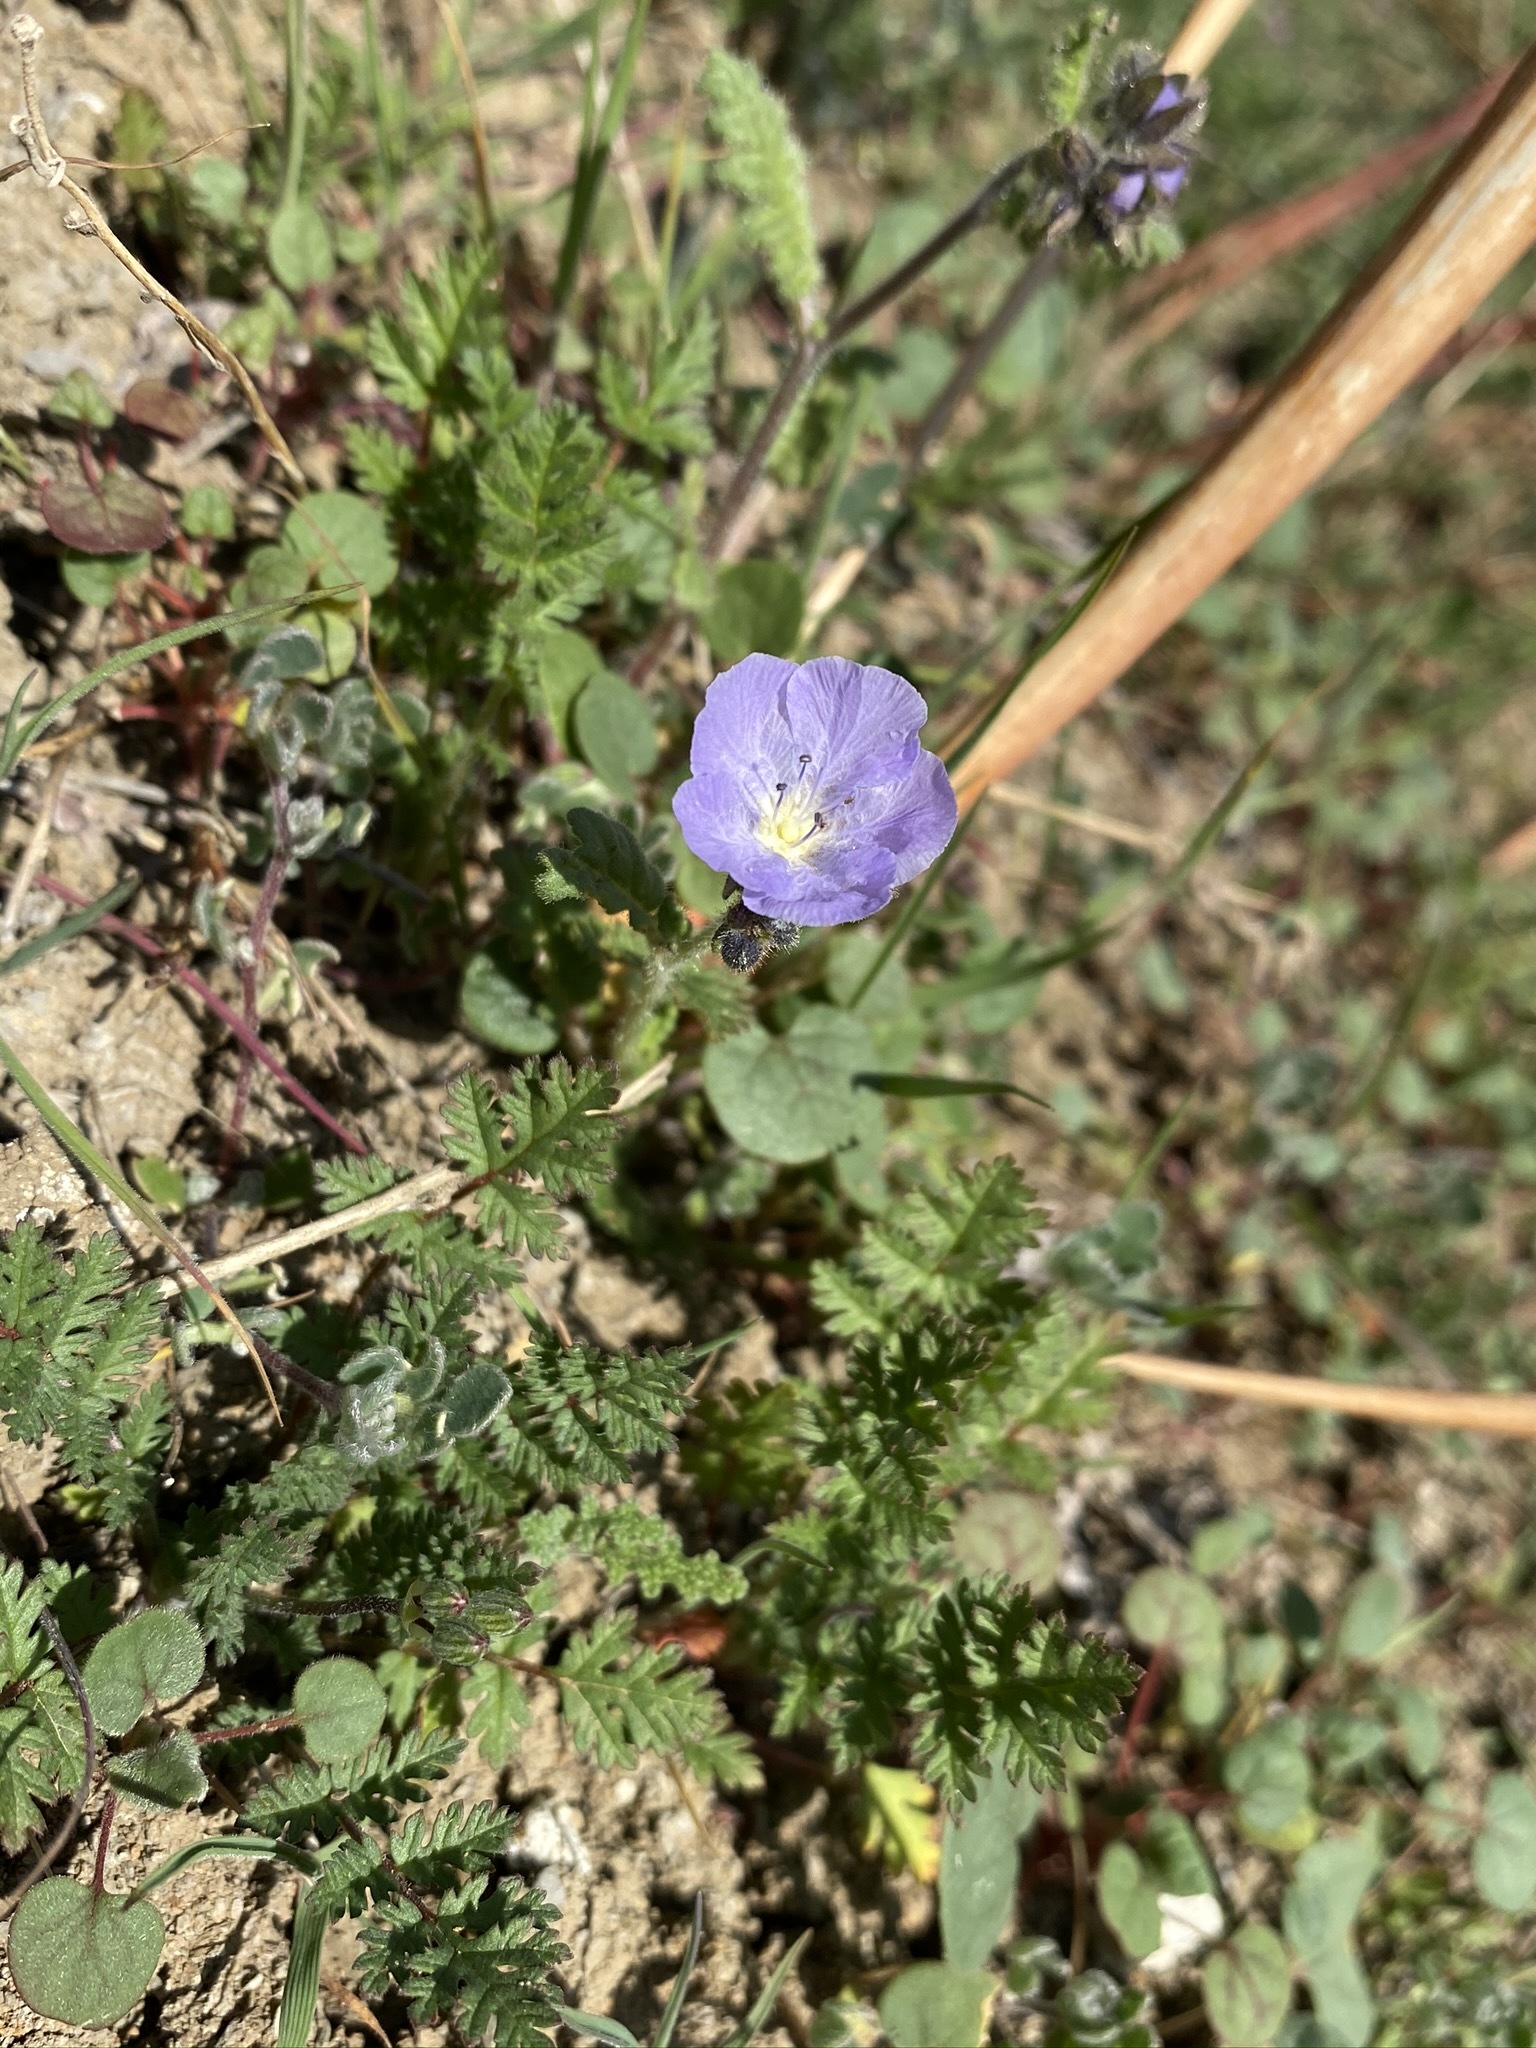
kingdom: Plantae
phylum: Tracheophyta
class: Magnoliopsida
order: Boraginales
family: Hydrophyllaceae
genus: Phacelia
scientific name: Phacelia ciliata
